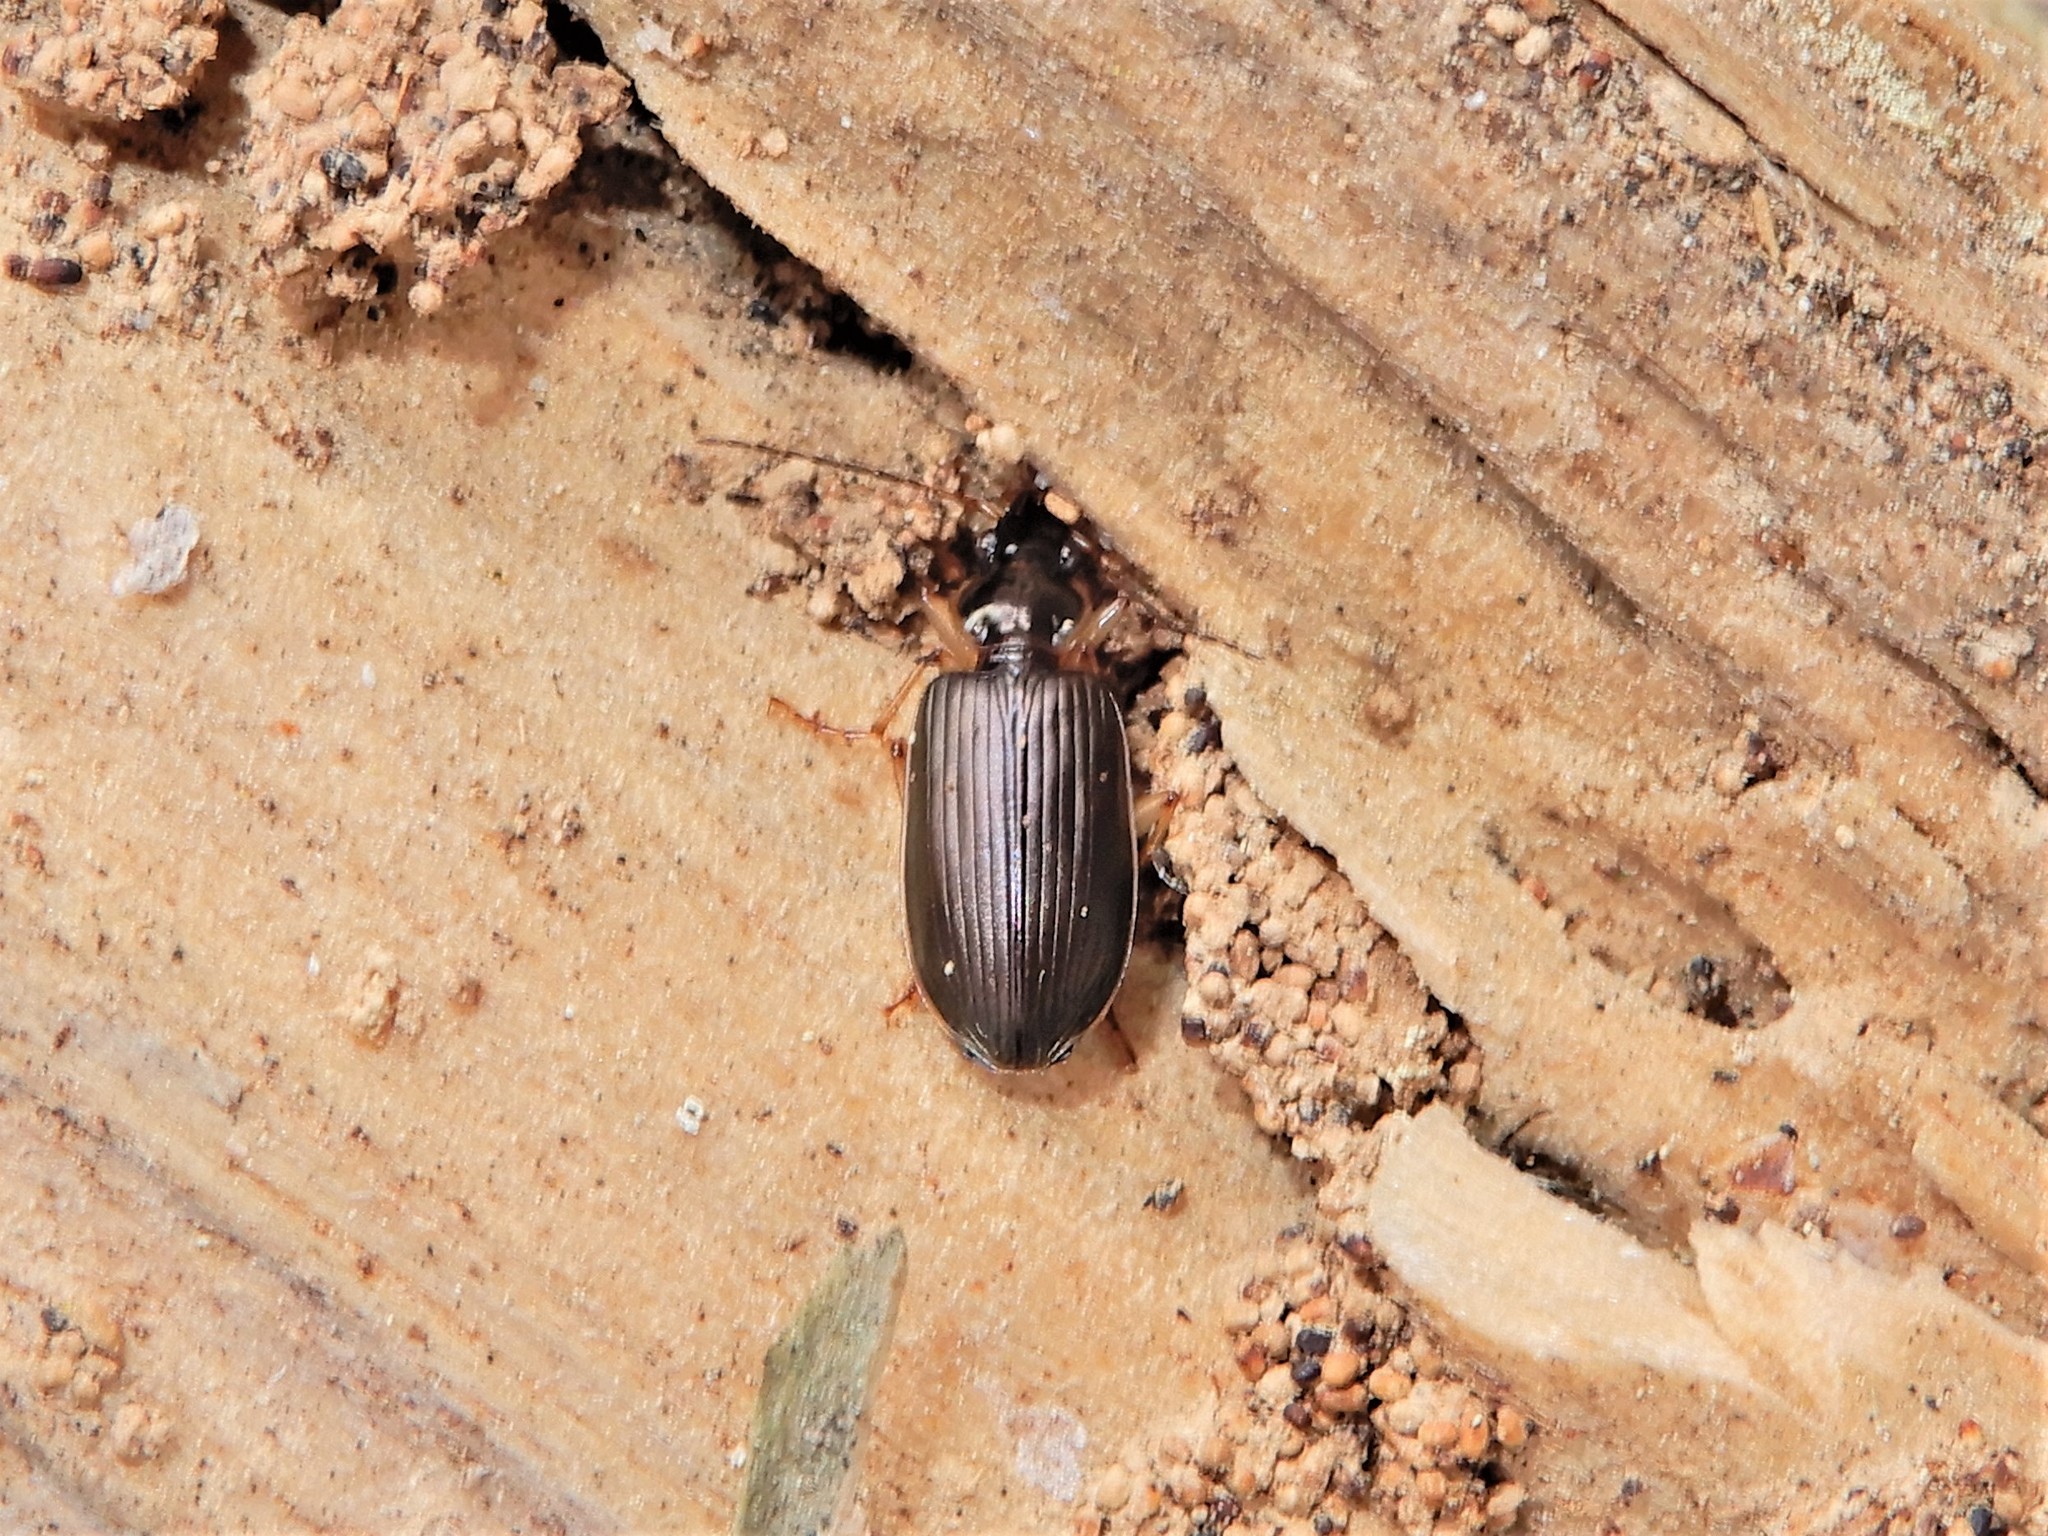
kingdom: Animalia
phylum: Arthropoda
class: Insecta
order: Coleoptera
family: Carabidae
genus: Notagonum
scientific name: Notagonum submetallicum
